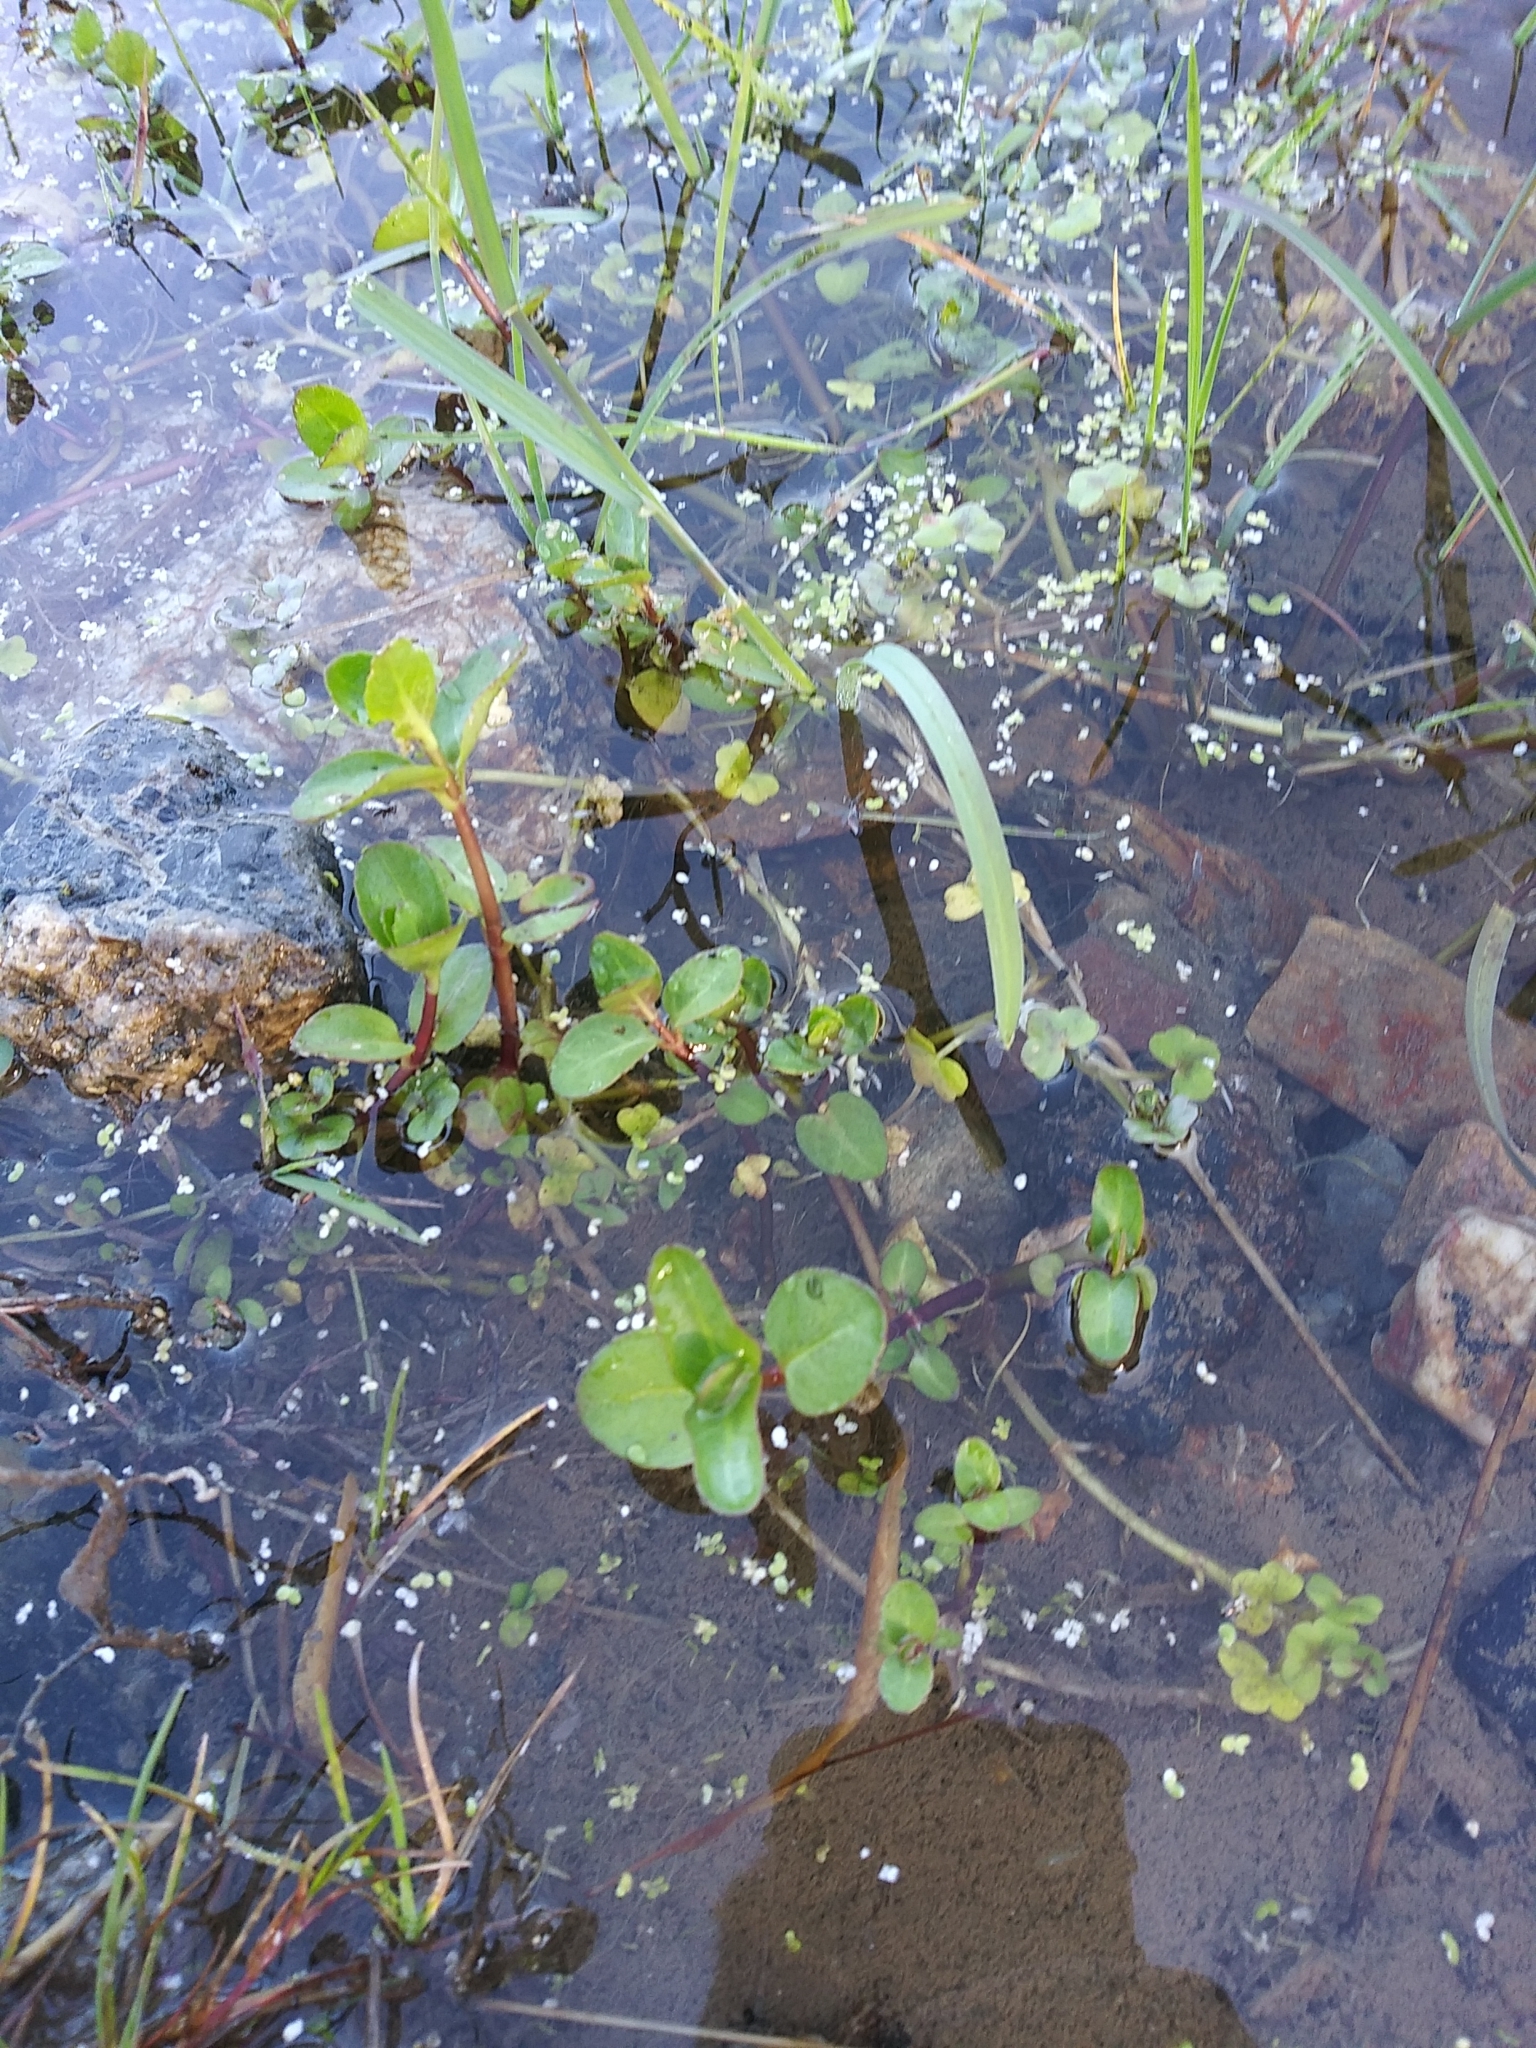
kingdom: Plantae
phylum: Tracheophyta
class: Magnoliopsida
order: Lamiales
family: Plantaginaceae
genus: Veronica
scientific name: Veronica beccabunga
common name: Brooklime
